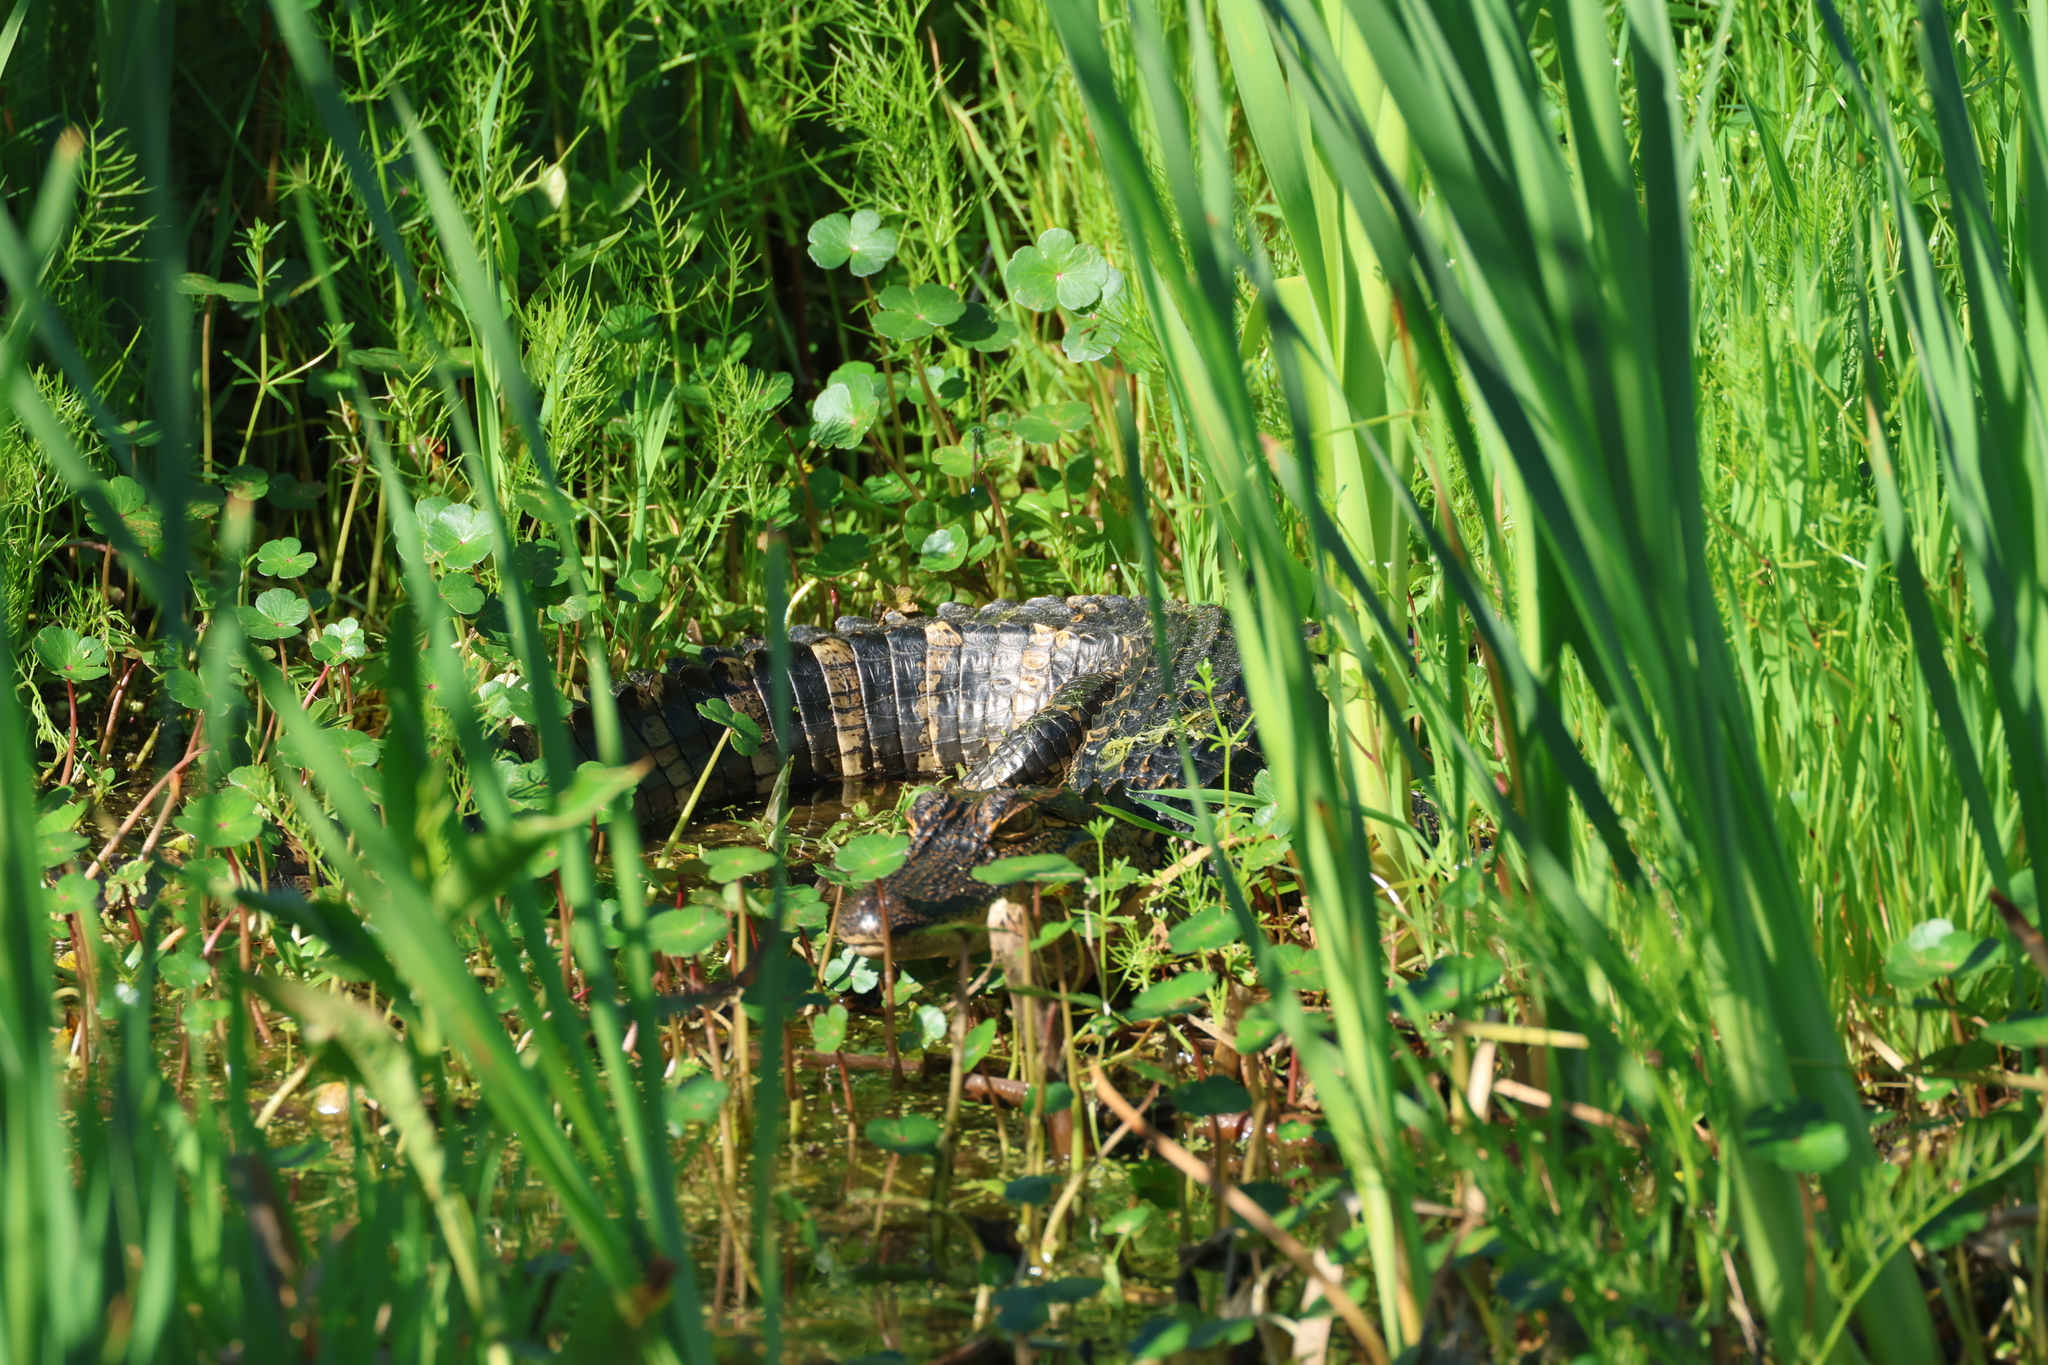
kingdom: Animalia
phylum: Chordata
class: Crocodylia
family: Alligatoridae
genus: Alligator
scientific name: Alligator mississippiensis
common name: American alligator
